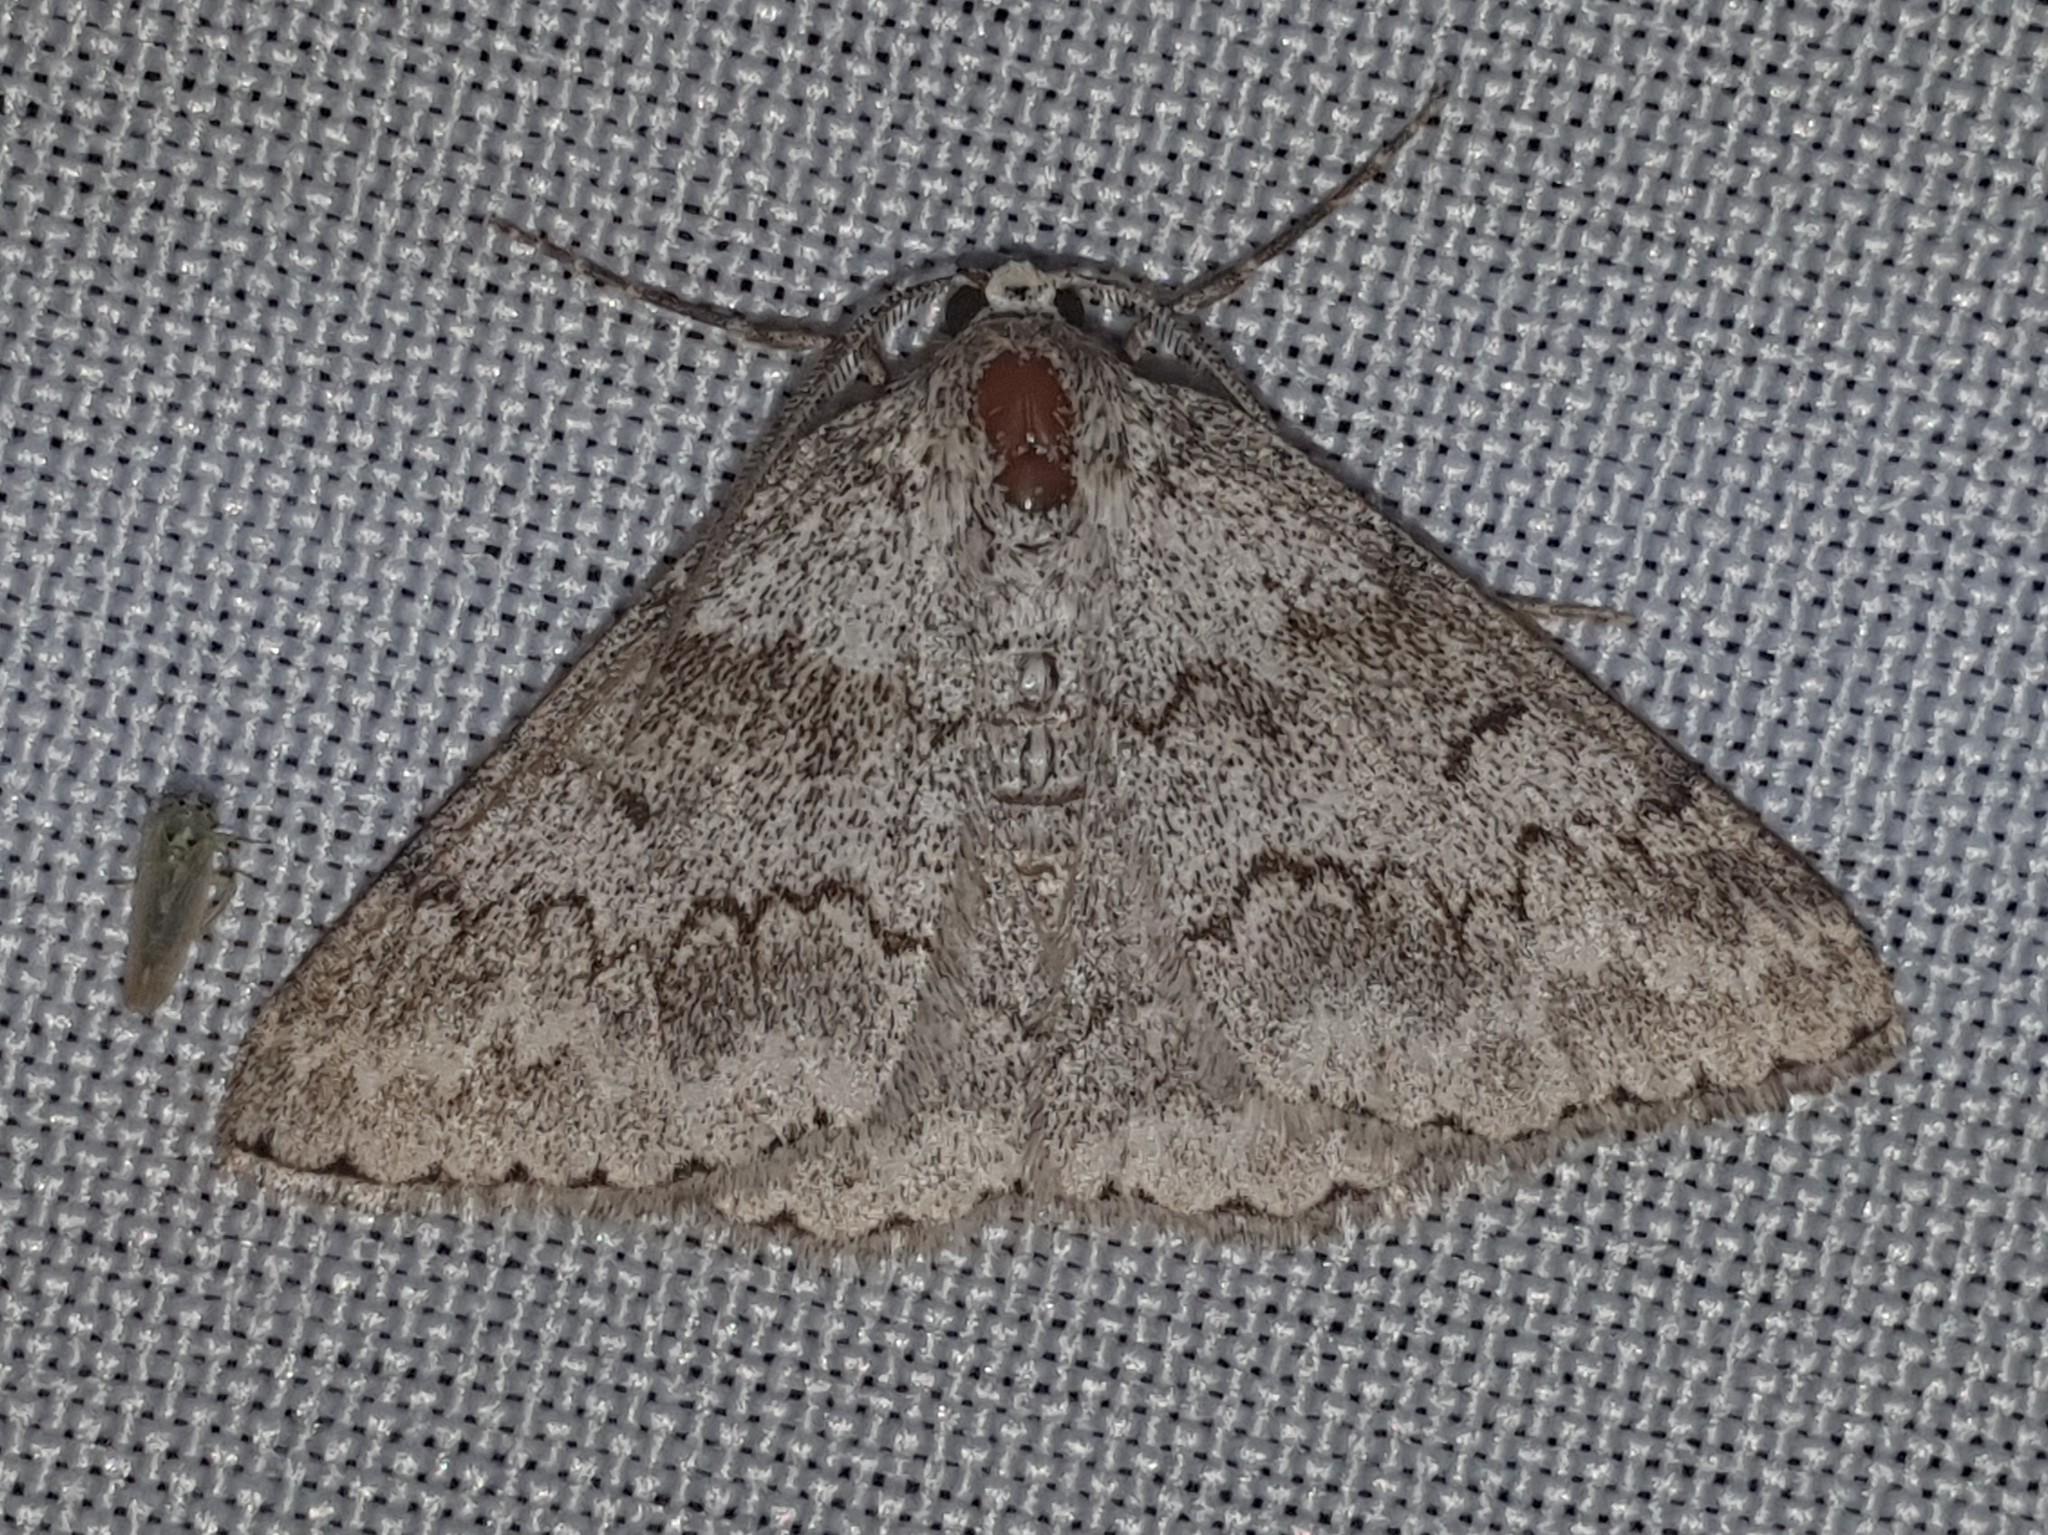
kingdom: Animalia
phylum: Arthropoda
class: Insecta
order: Lepidoptera
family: Geometridae
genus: Pseudoterpna
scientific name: Pseudoterpna coronillaria
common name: Jersey emerald
